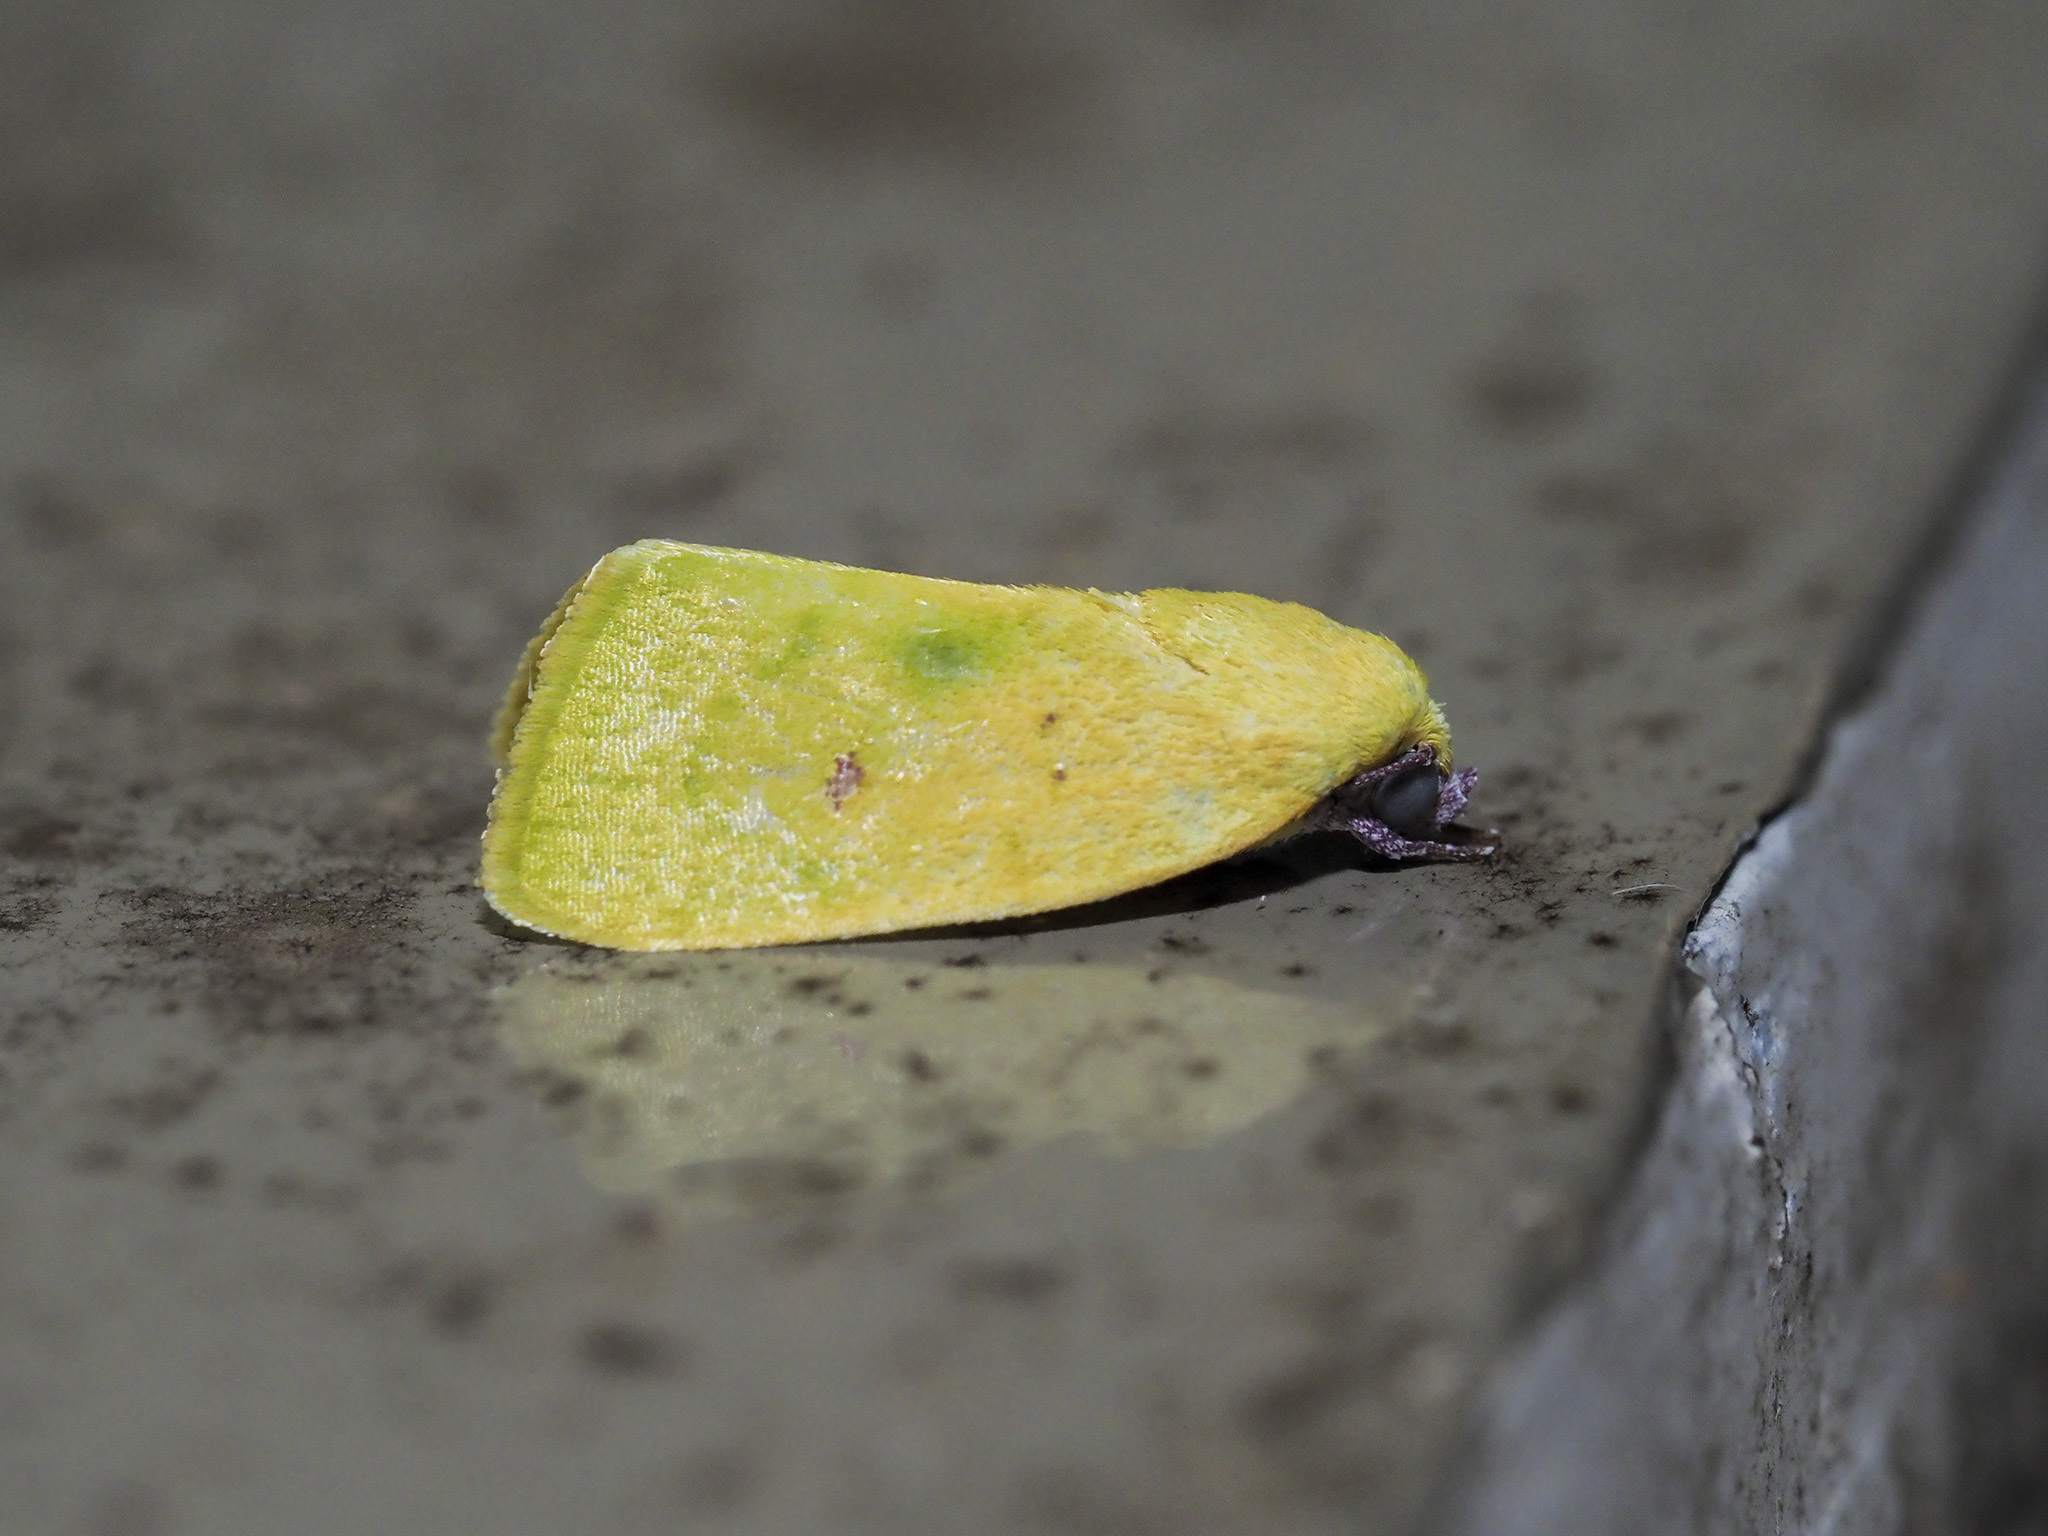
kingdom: Animalia
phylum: Arthropoda
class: Insecta
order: Lepidoptera
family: Nolidae
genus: Earias
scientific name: Earias flavida
